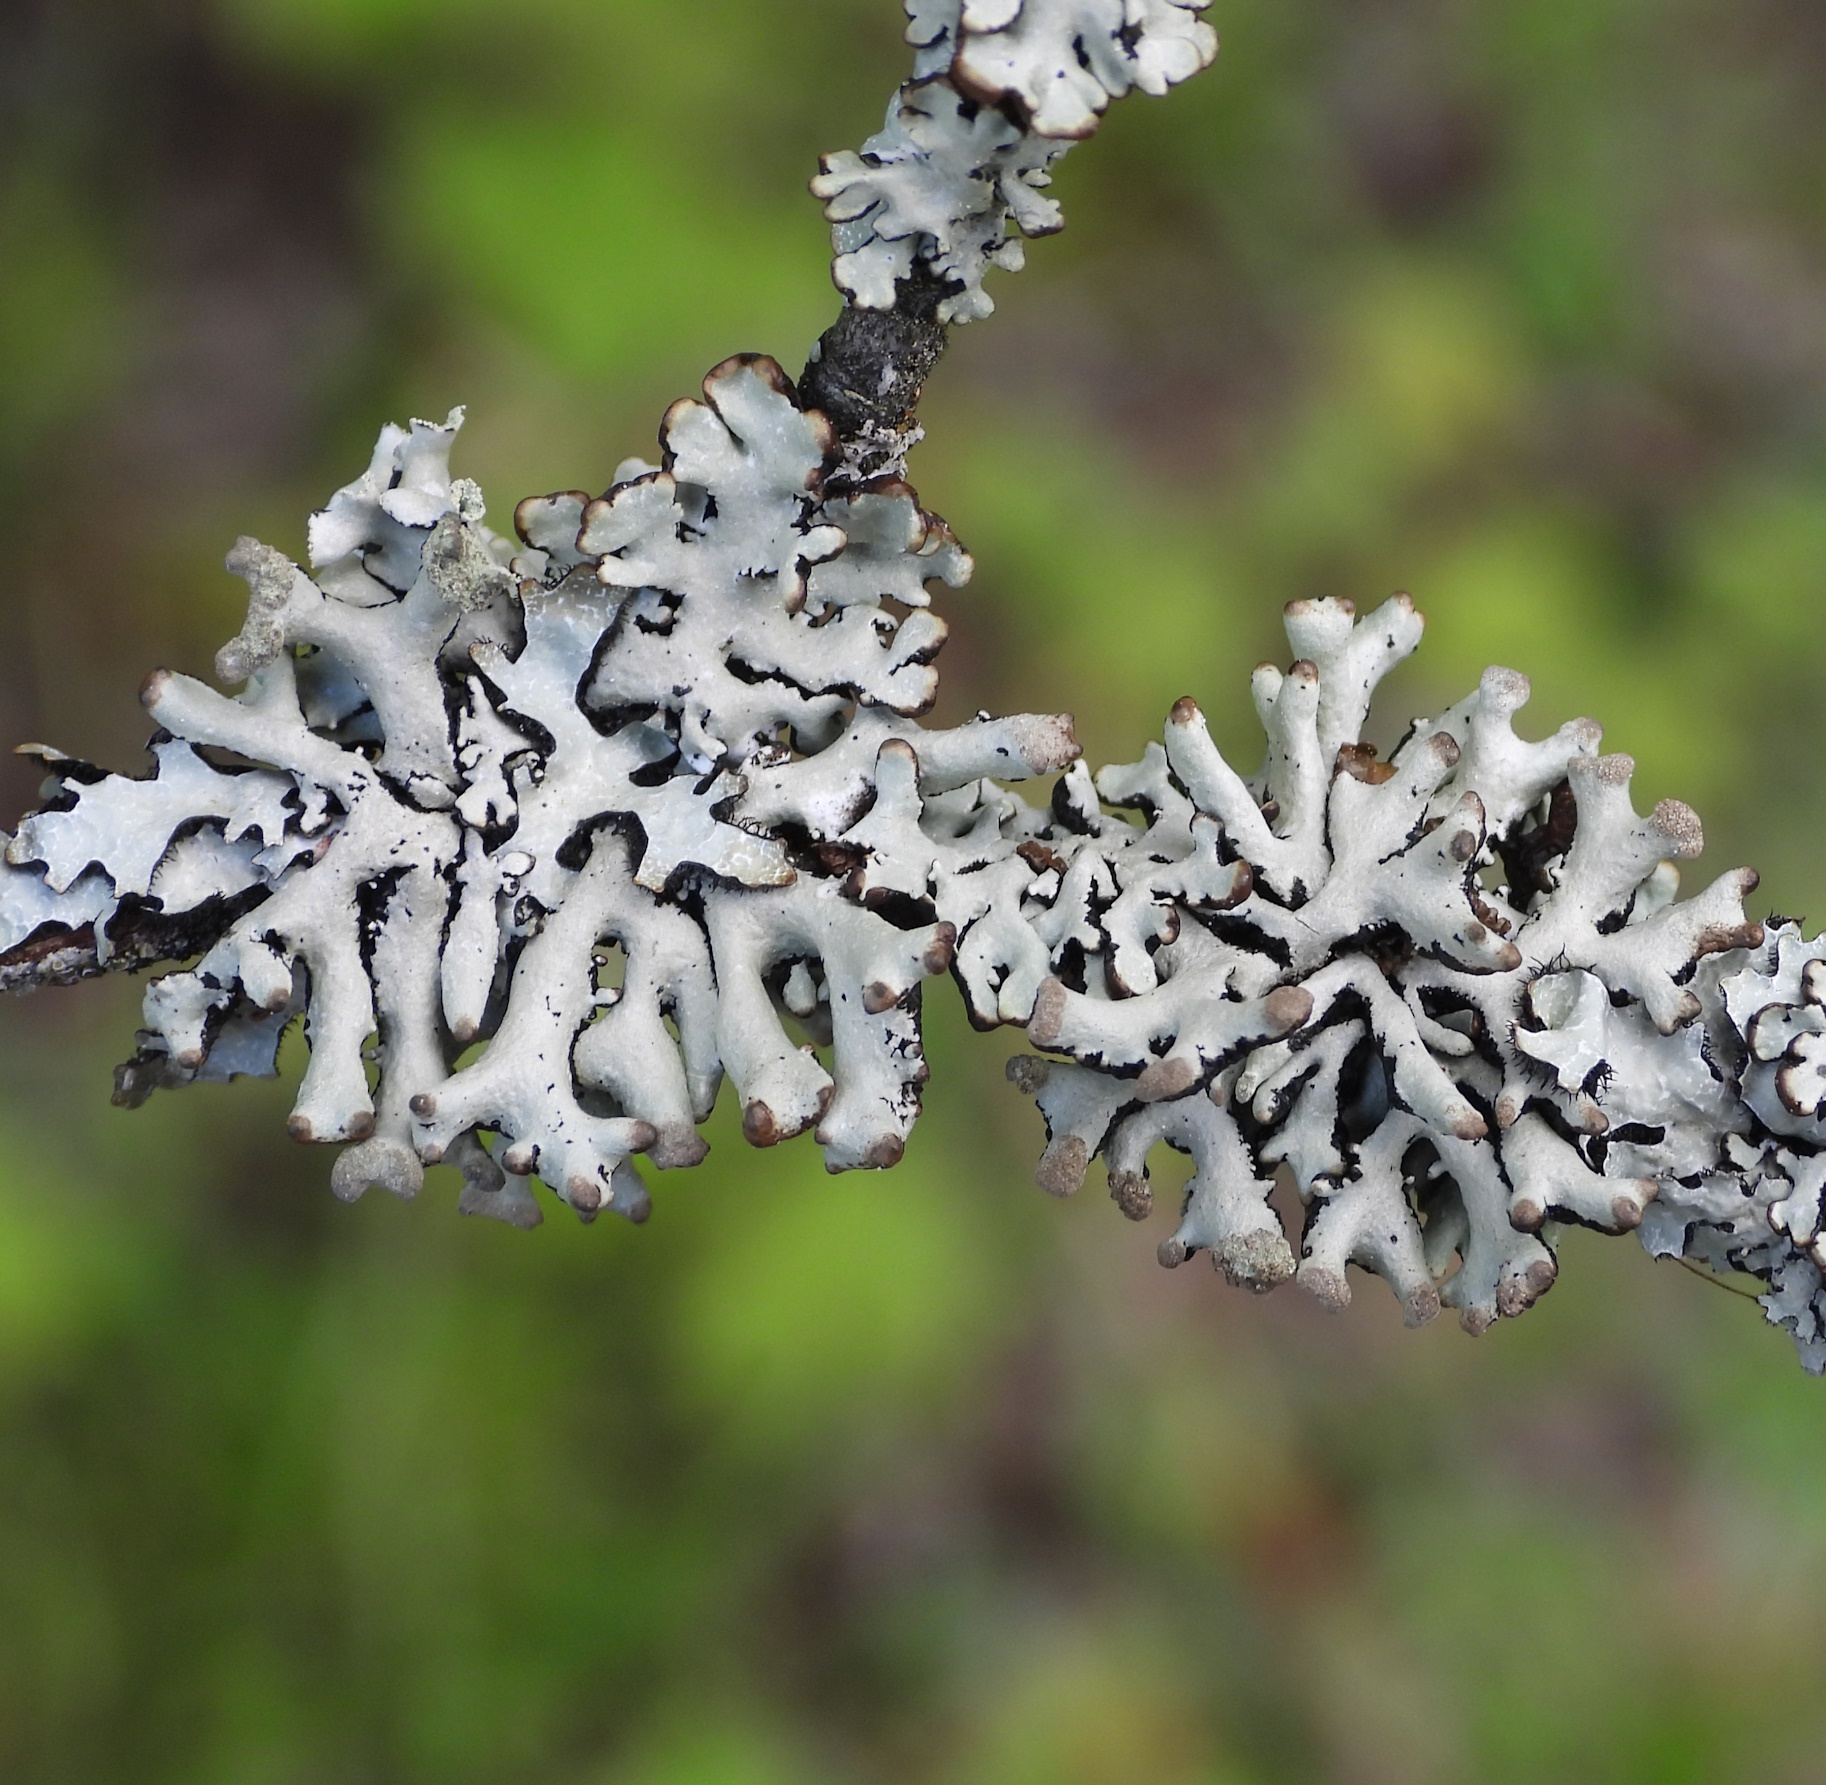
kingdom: Fungi
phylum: Ascomycota
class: Lecanoromycetes
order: Lecanorales
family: Parmeliaceae
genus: Hypogymnia
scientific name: Hypogymnia tubulosa
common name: Powder-headed tube lichen
